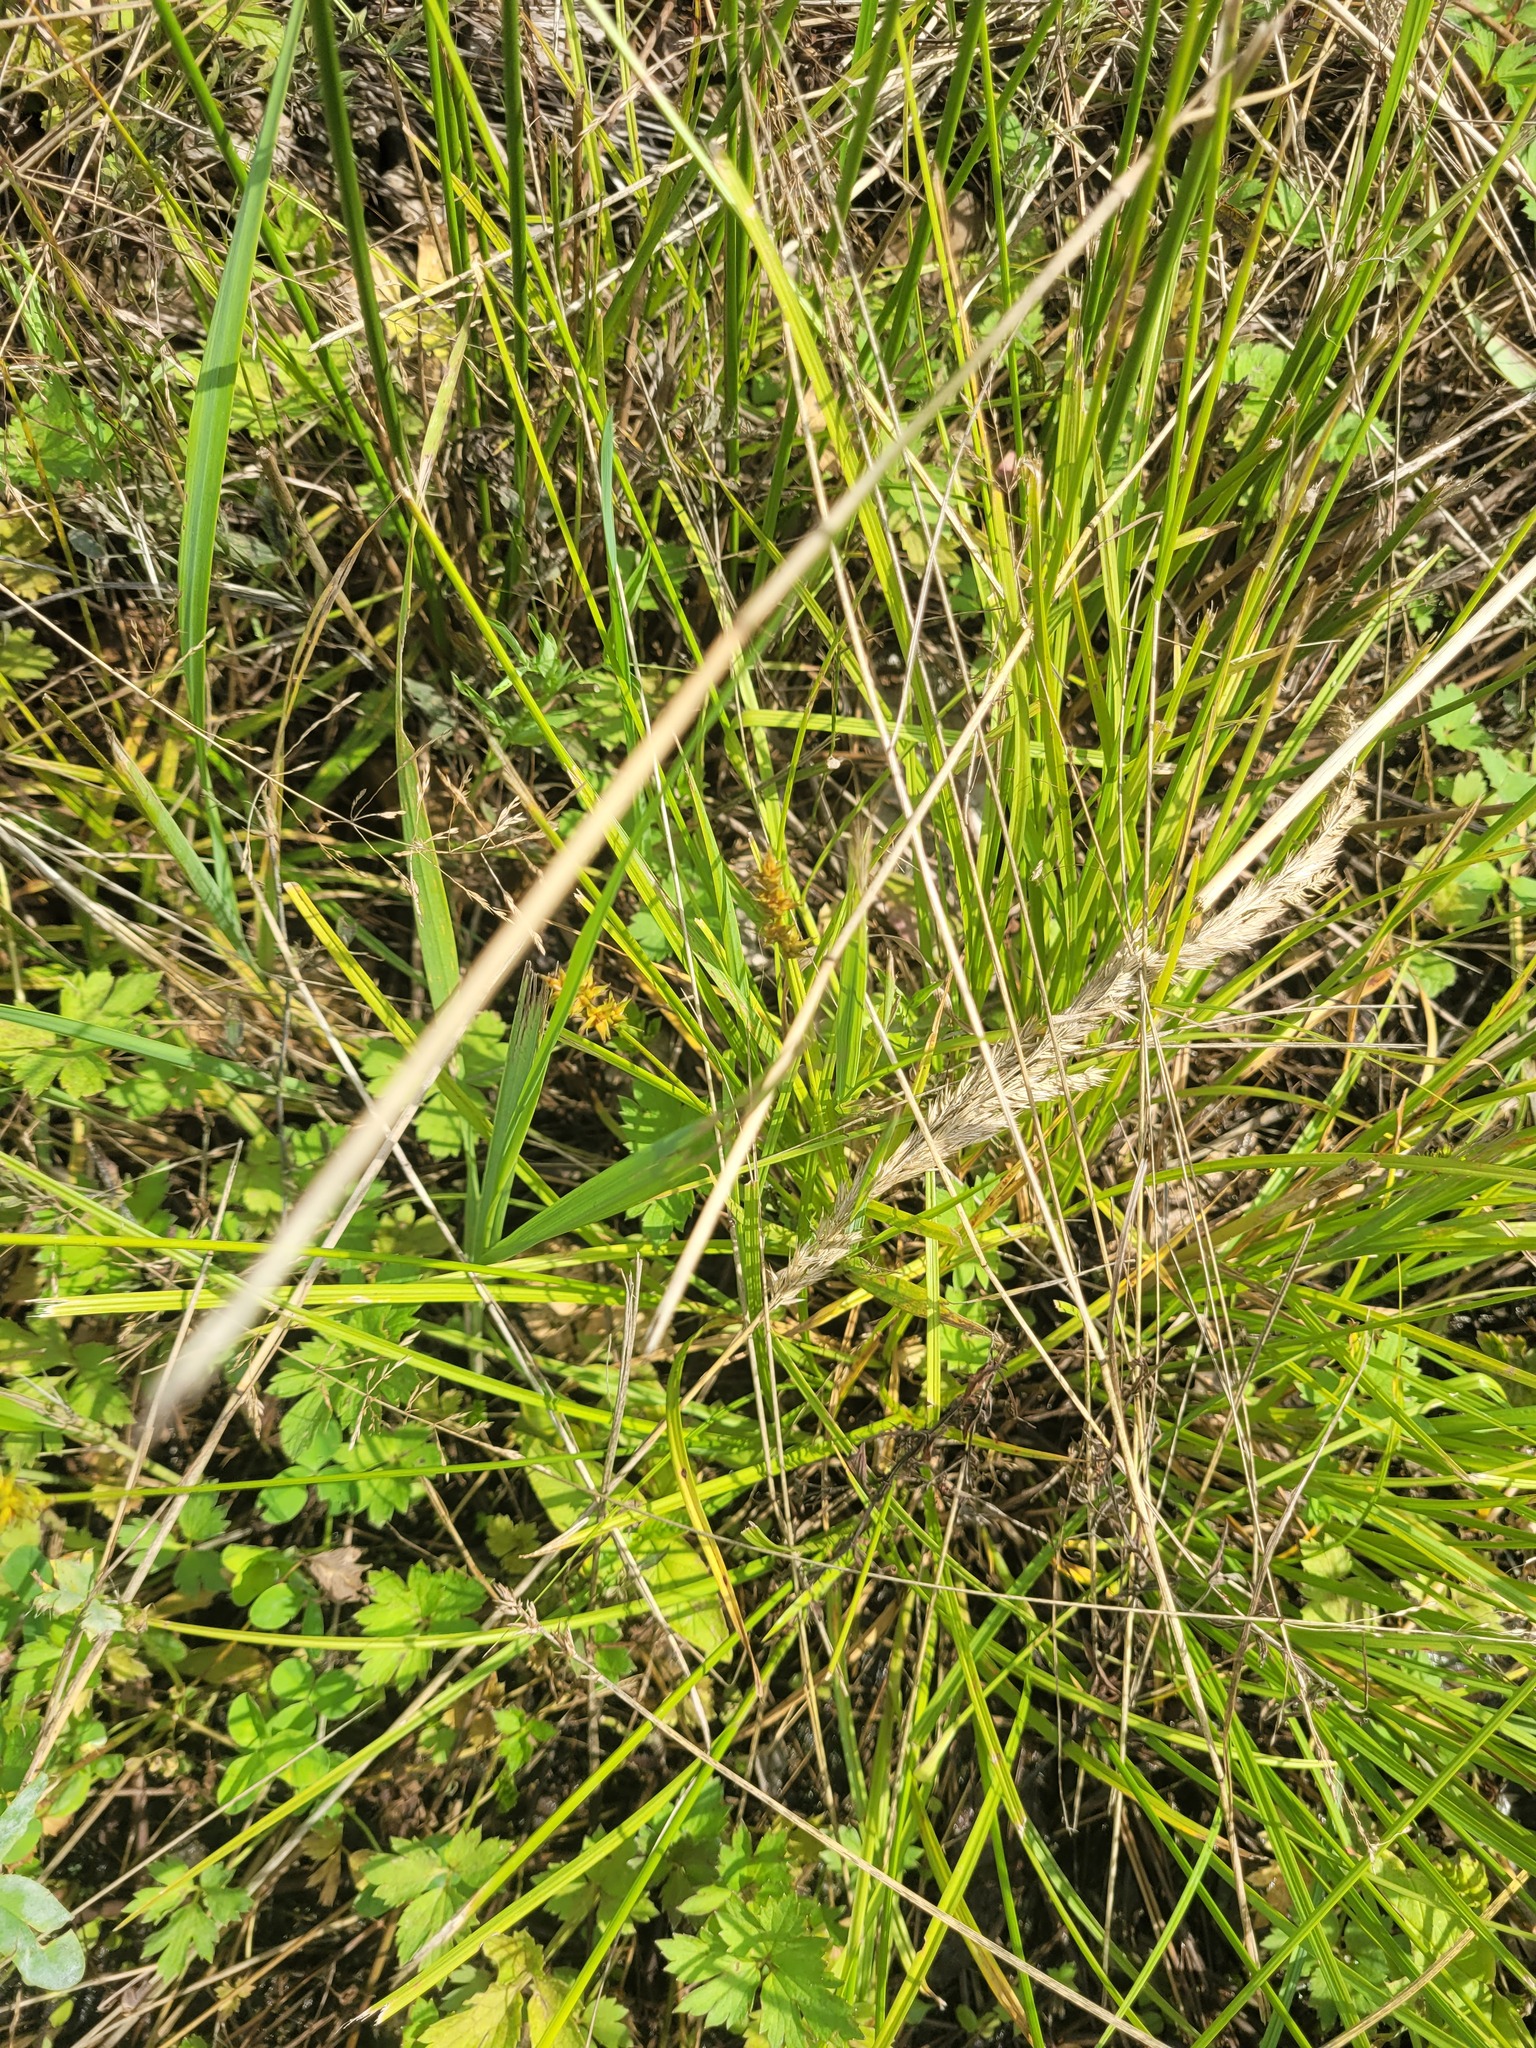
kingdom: Plantae
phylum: Tracheophyta
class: Liliopsida
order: Poales
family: Cyperaceae
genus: Carex
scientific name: Carex spicata
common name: Spiked sedge
